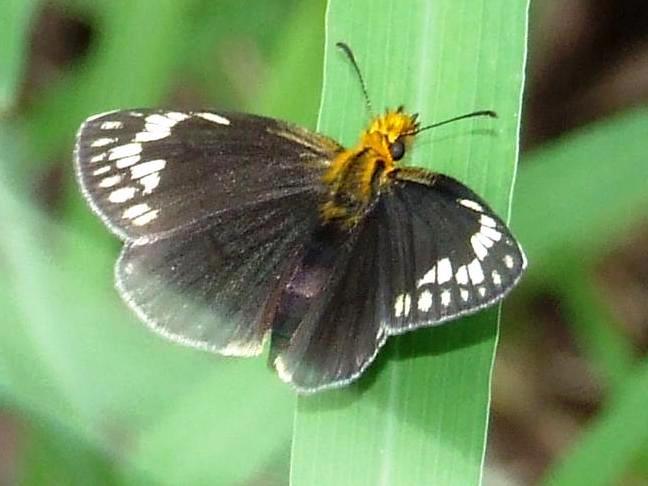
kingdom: Animalia
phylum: Arthropoda
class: Insecta
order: Lepidoptera
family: Hesperiidae
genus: Willema
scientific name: Willema willemi
